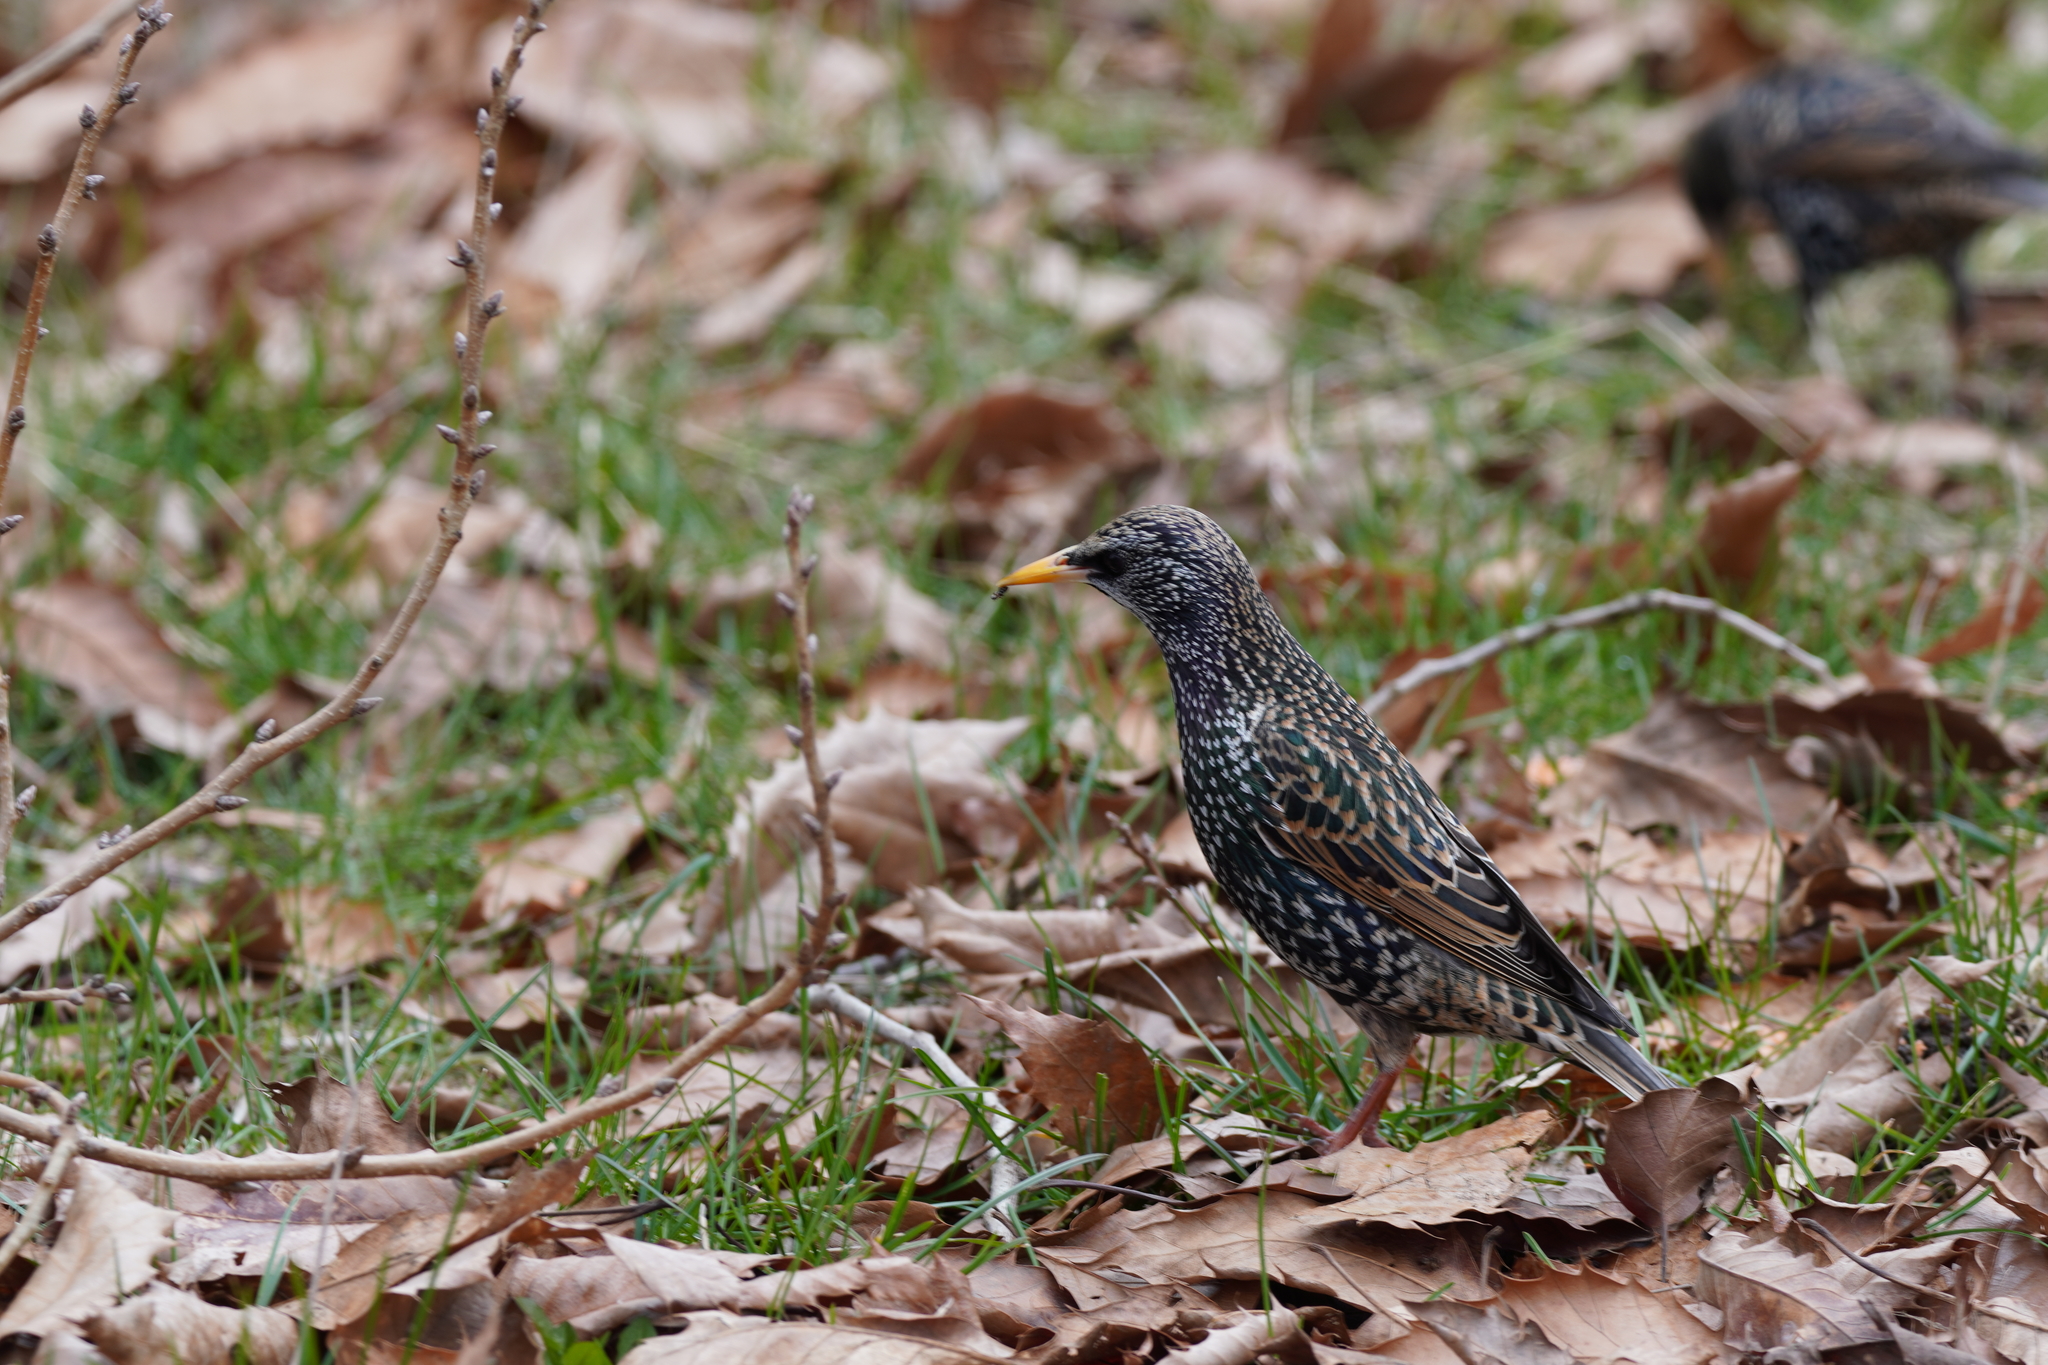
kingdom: Animalia
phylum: Chordata
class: Aves
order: Passeriformes
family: Sturnidae
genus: Sturnus
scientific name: Sturnus vulgaris
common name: Common starling
